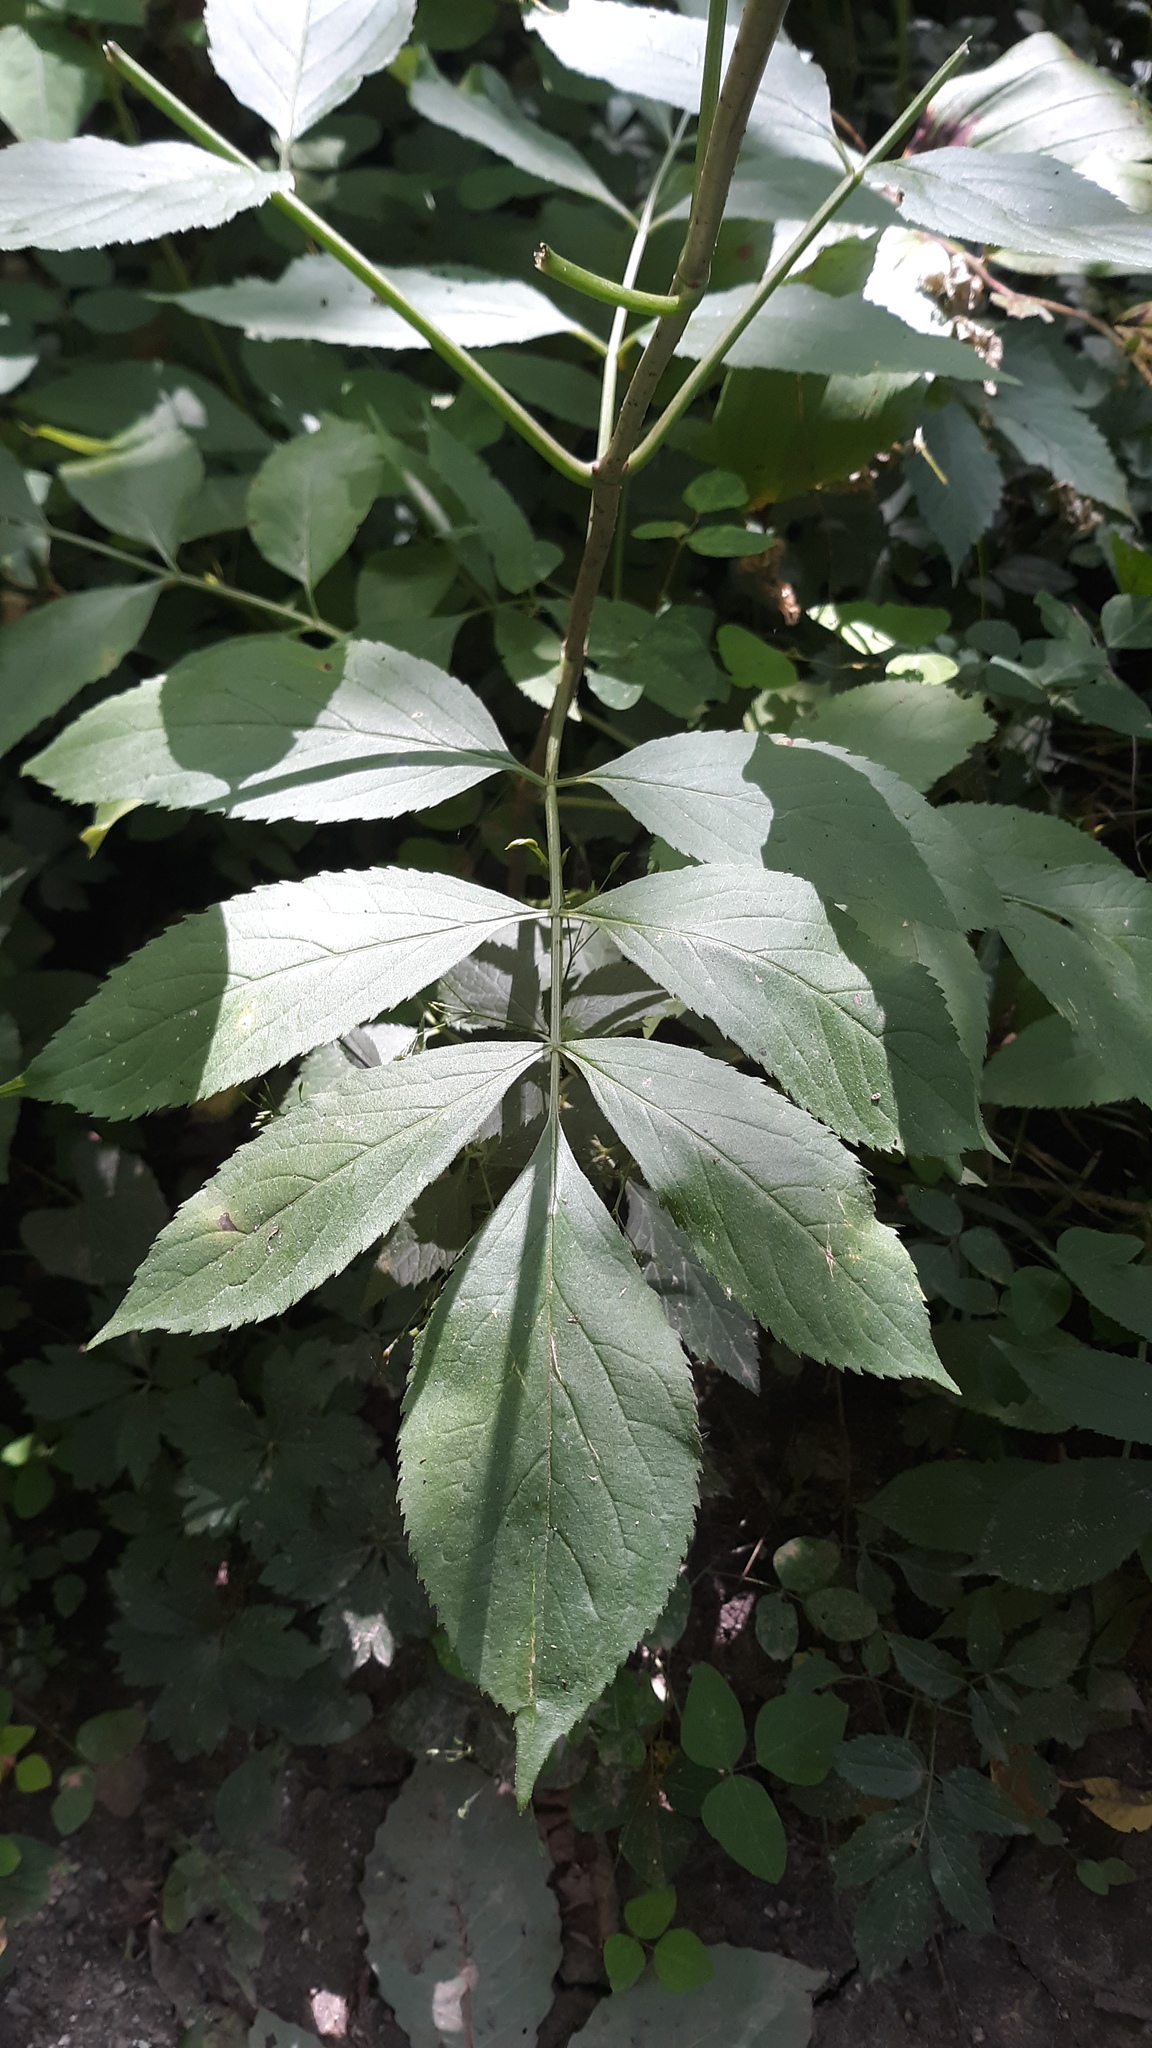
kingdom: Plantae
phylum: Tracheophyta
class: Magnoliopsida
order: Dipsacales
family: Viburnaceae
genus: Sambucus
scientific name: Sambucus canadensis
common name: American elder
